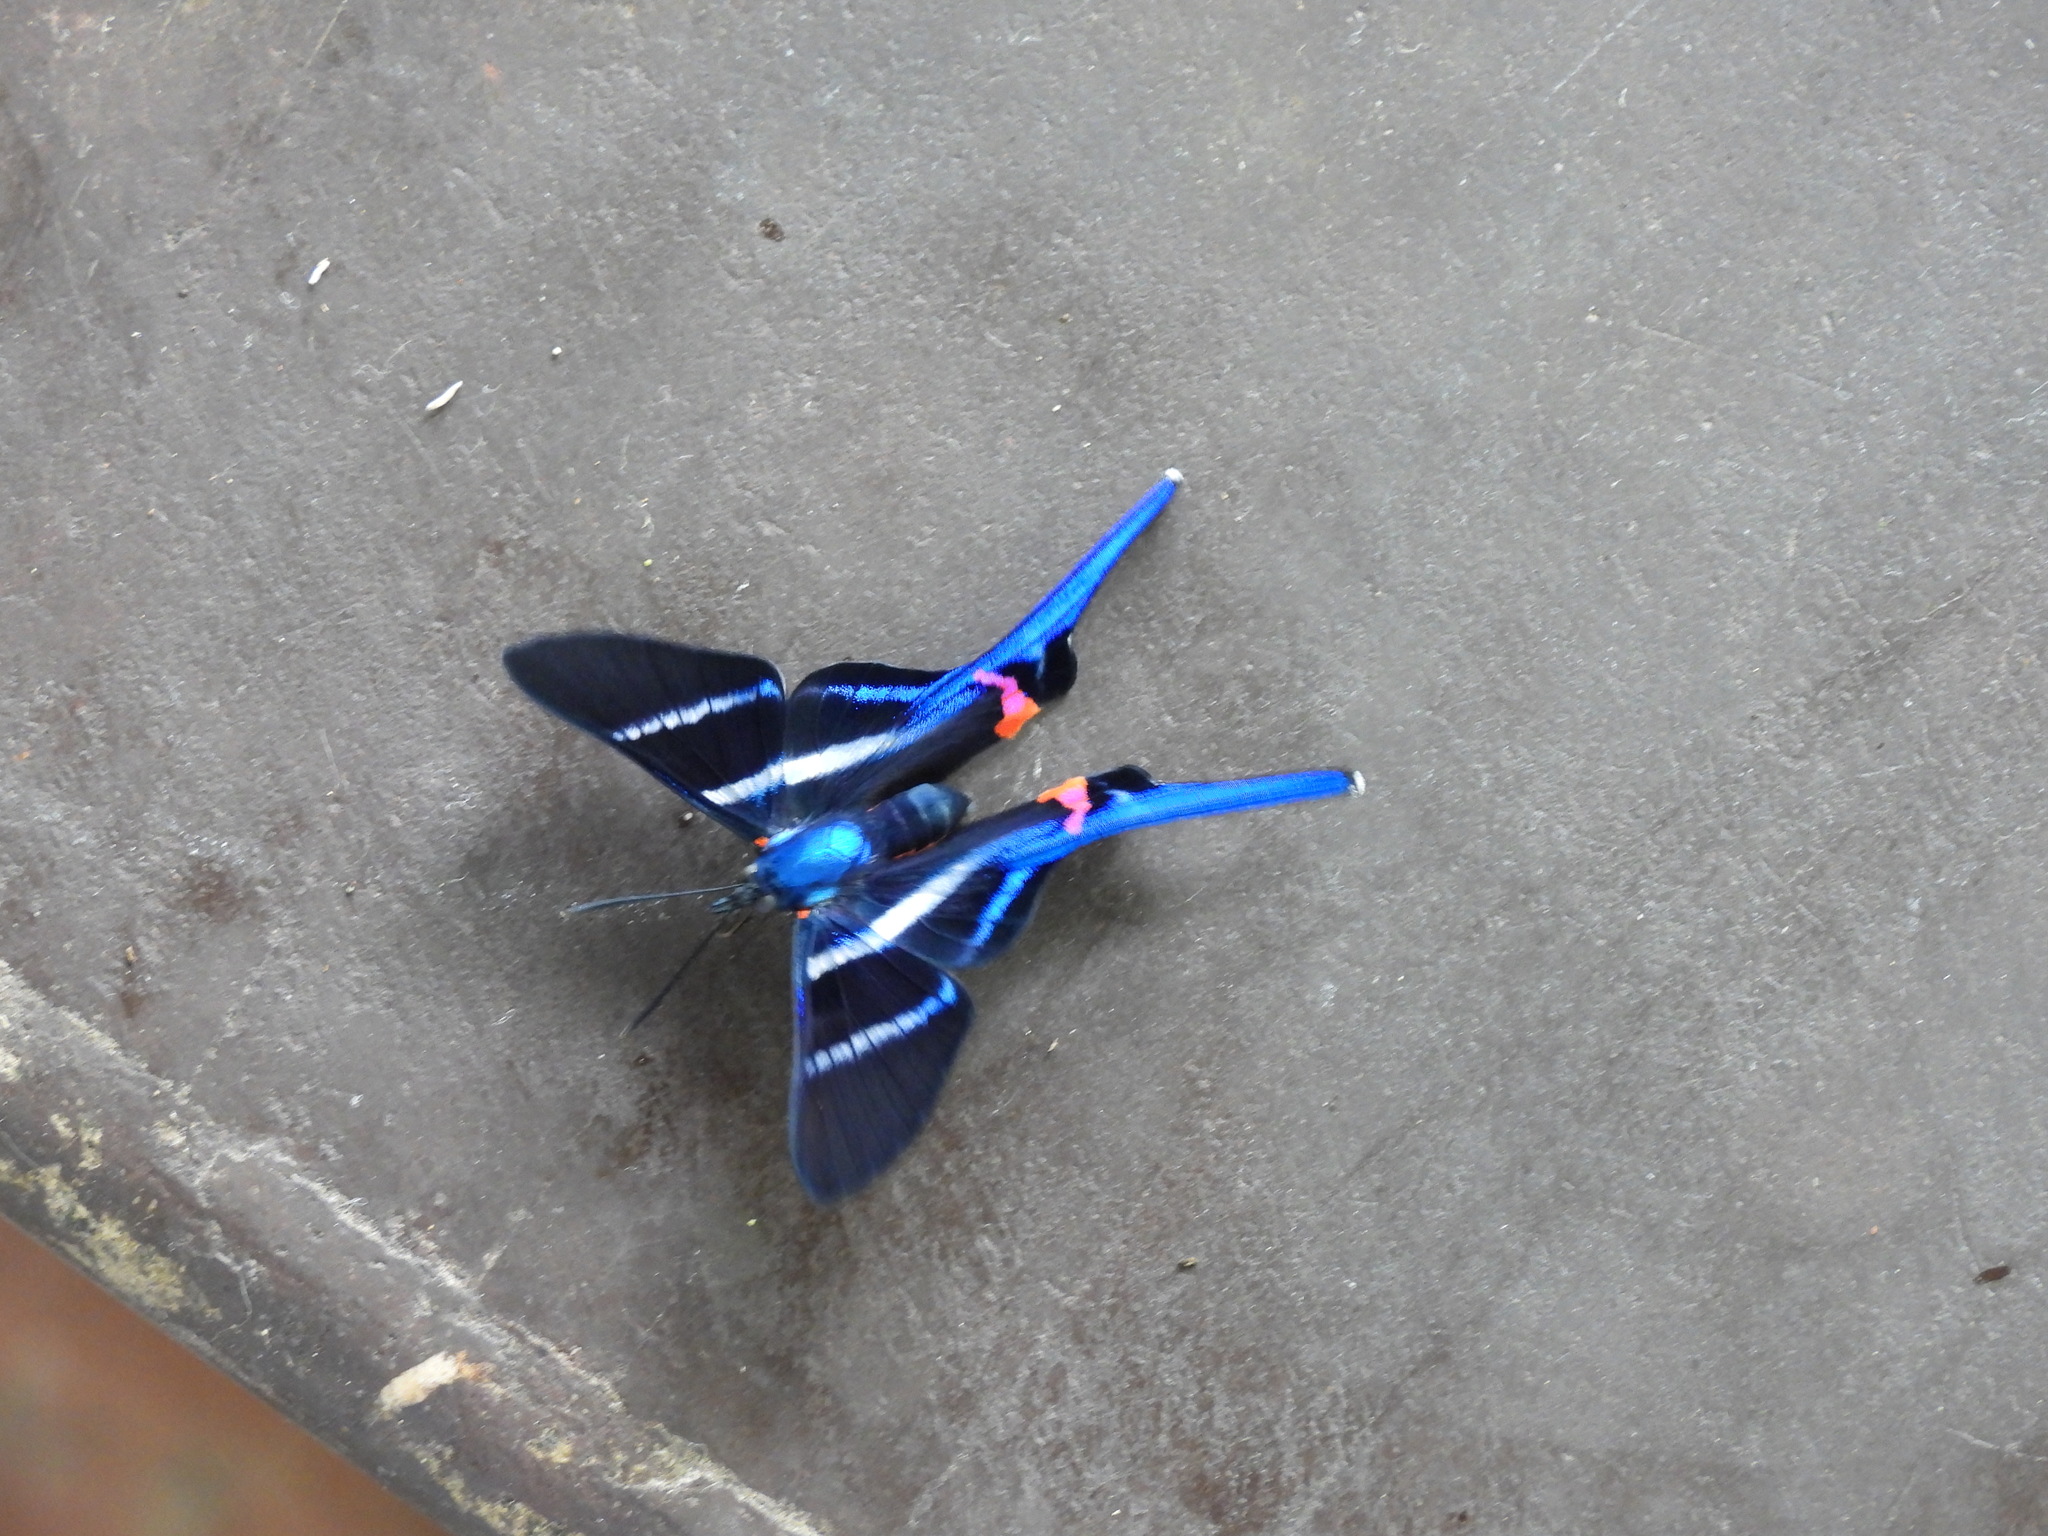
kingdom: Animalia
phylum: Arthropoda
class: Insecta
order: Lepidoptera
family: Riodinidae
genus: Rhetus
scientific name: Rhetus arcius
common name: Long-tailed metalmark
